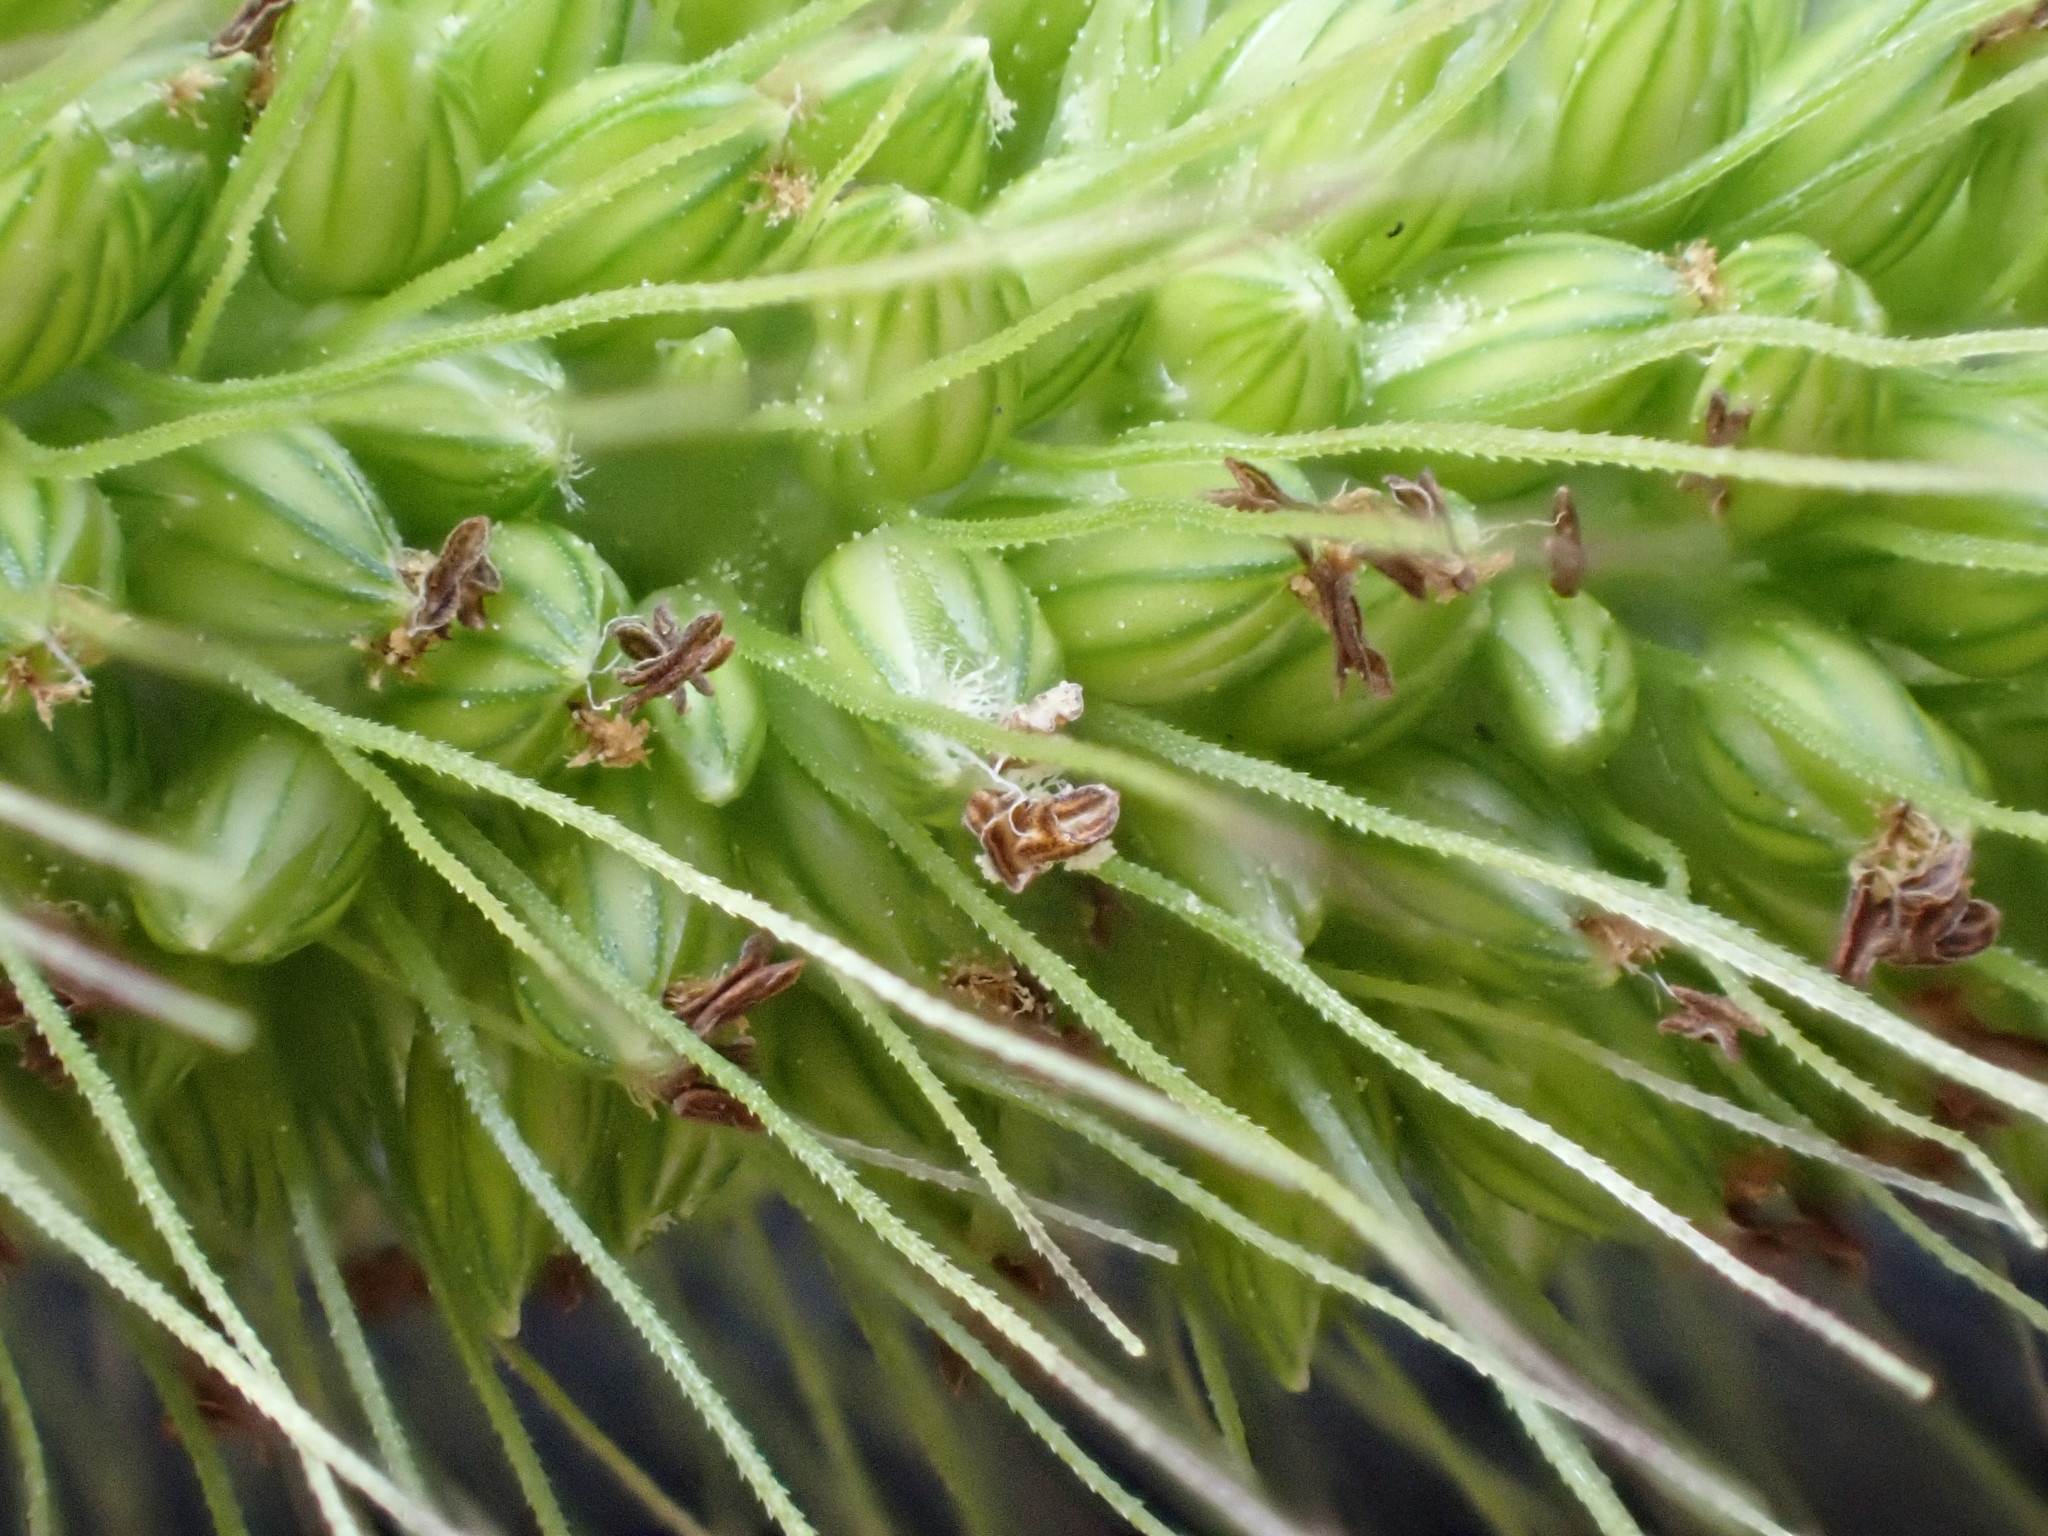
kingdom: Plantae
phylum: Tracheophyta
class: Liliopsida
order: Poales
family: Poaceae
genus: Setaria
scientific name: Setaria faberi
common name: Nodding bristle-grass
